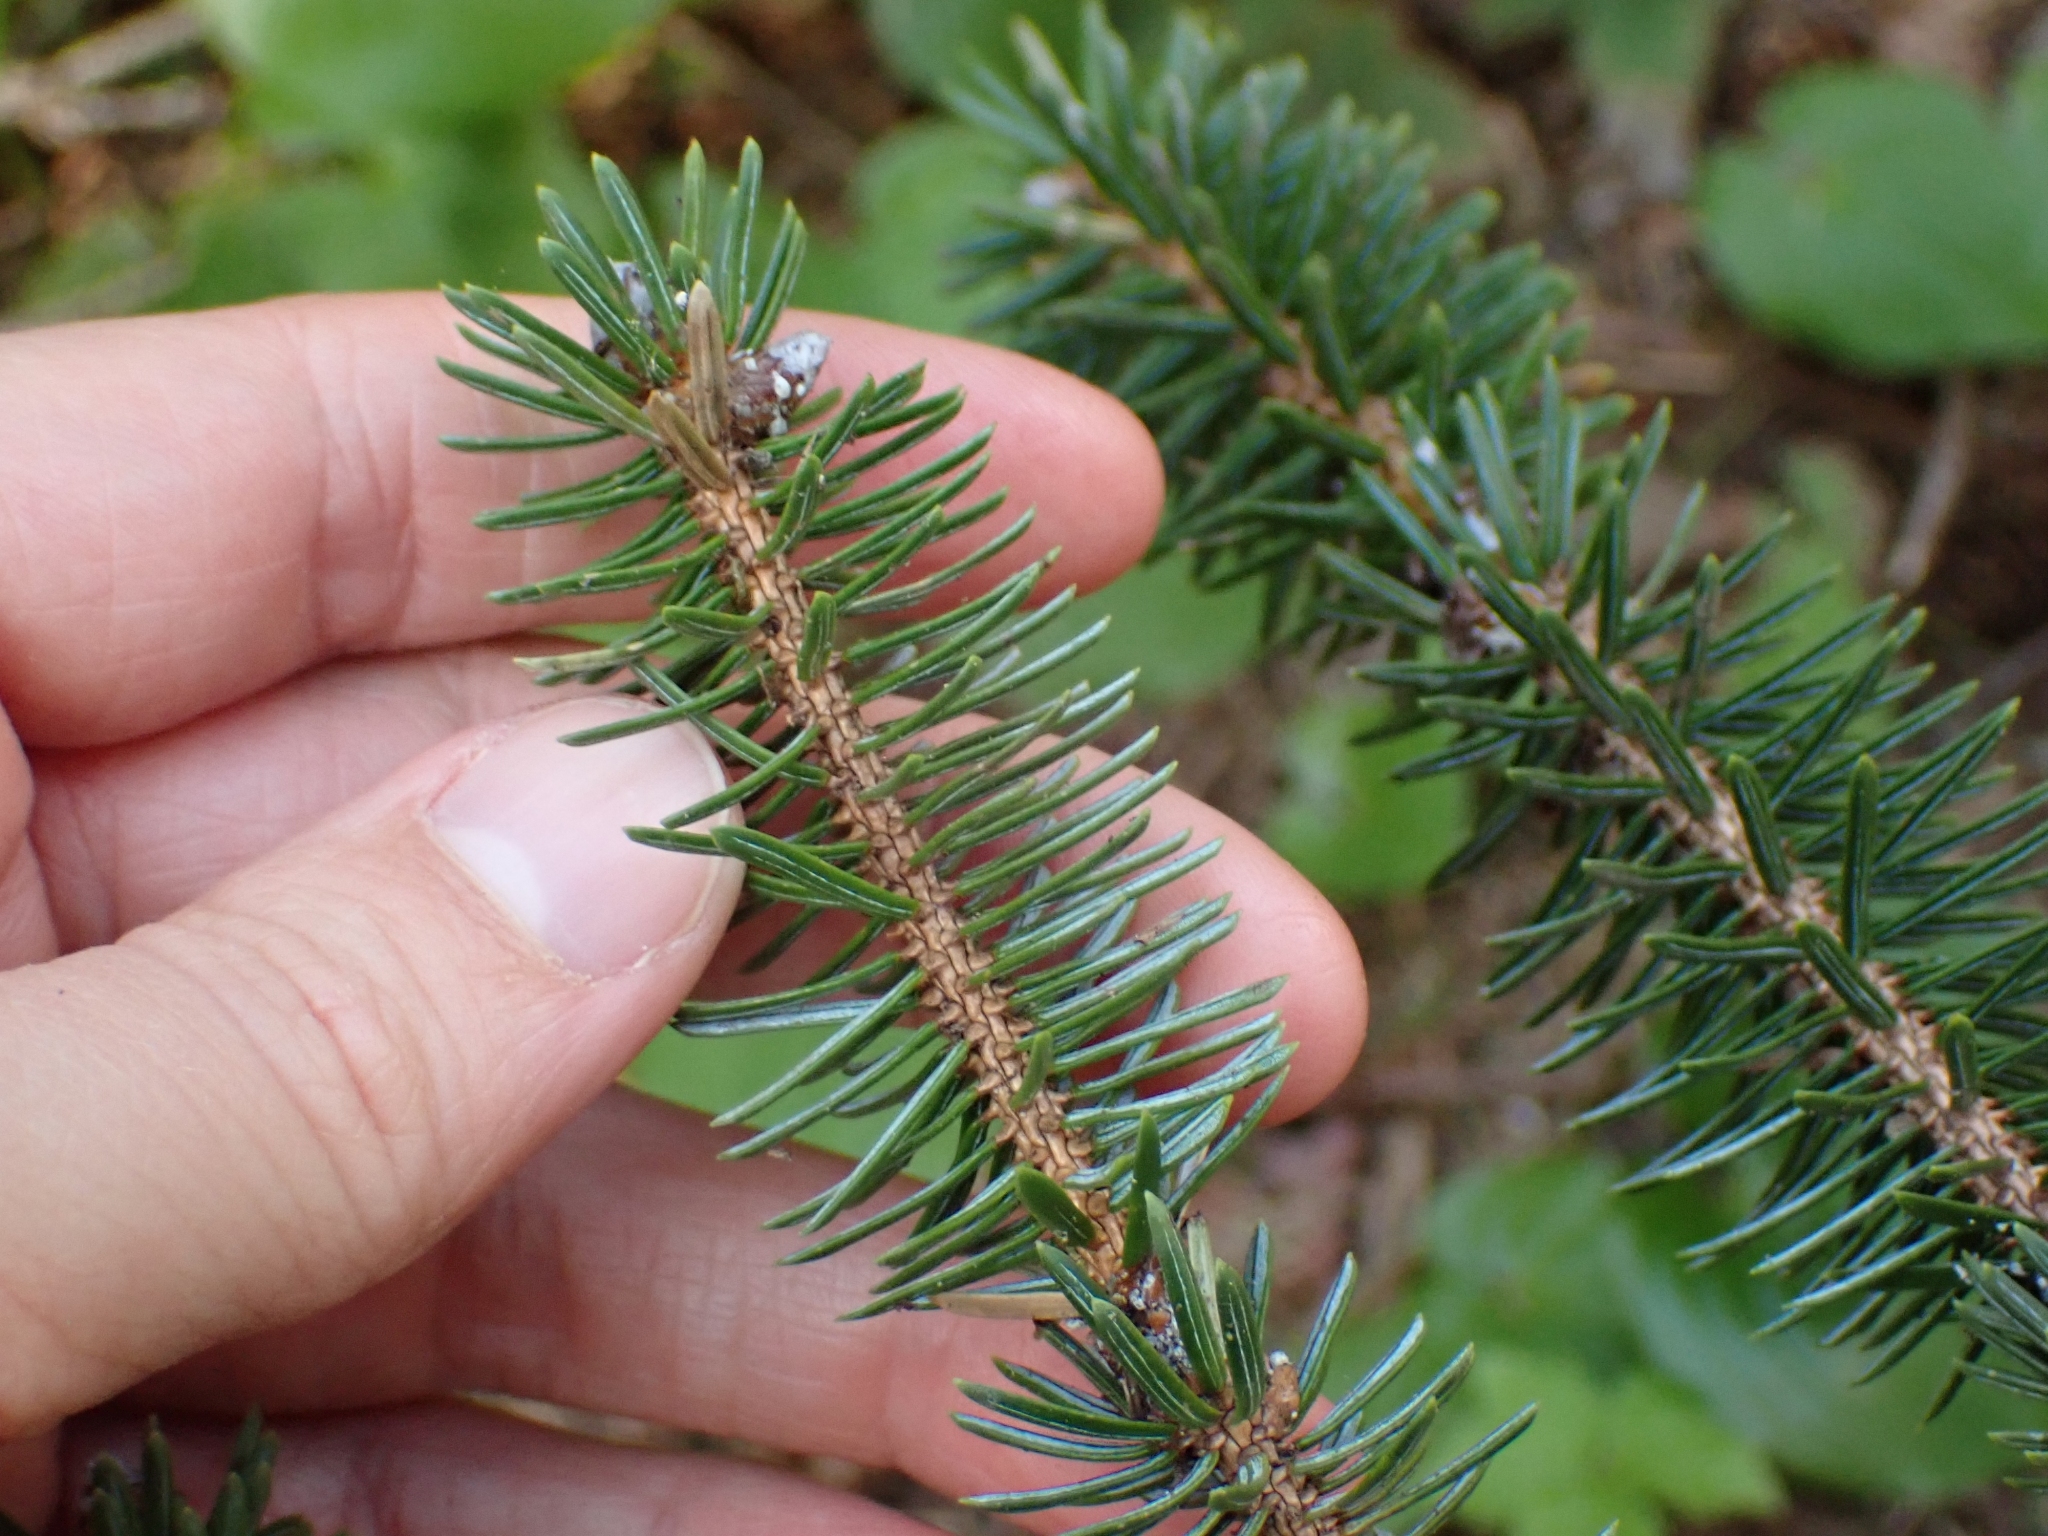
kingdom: Plantae
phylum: Tracheophyta
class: Pinopsida
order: Pinales
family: Pinaceae
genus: Picea
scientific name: Picea sitchensis
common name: Sitka spruce
